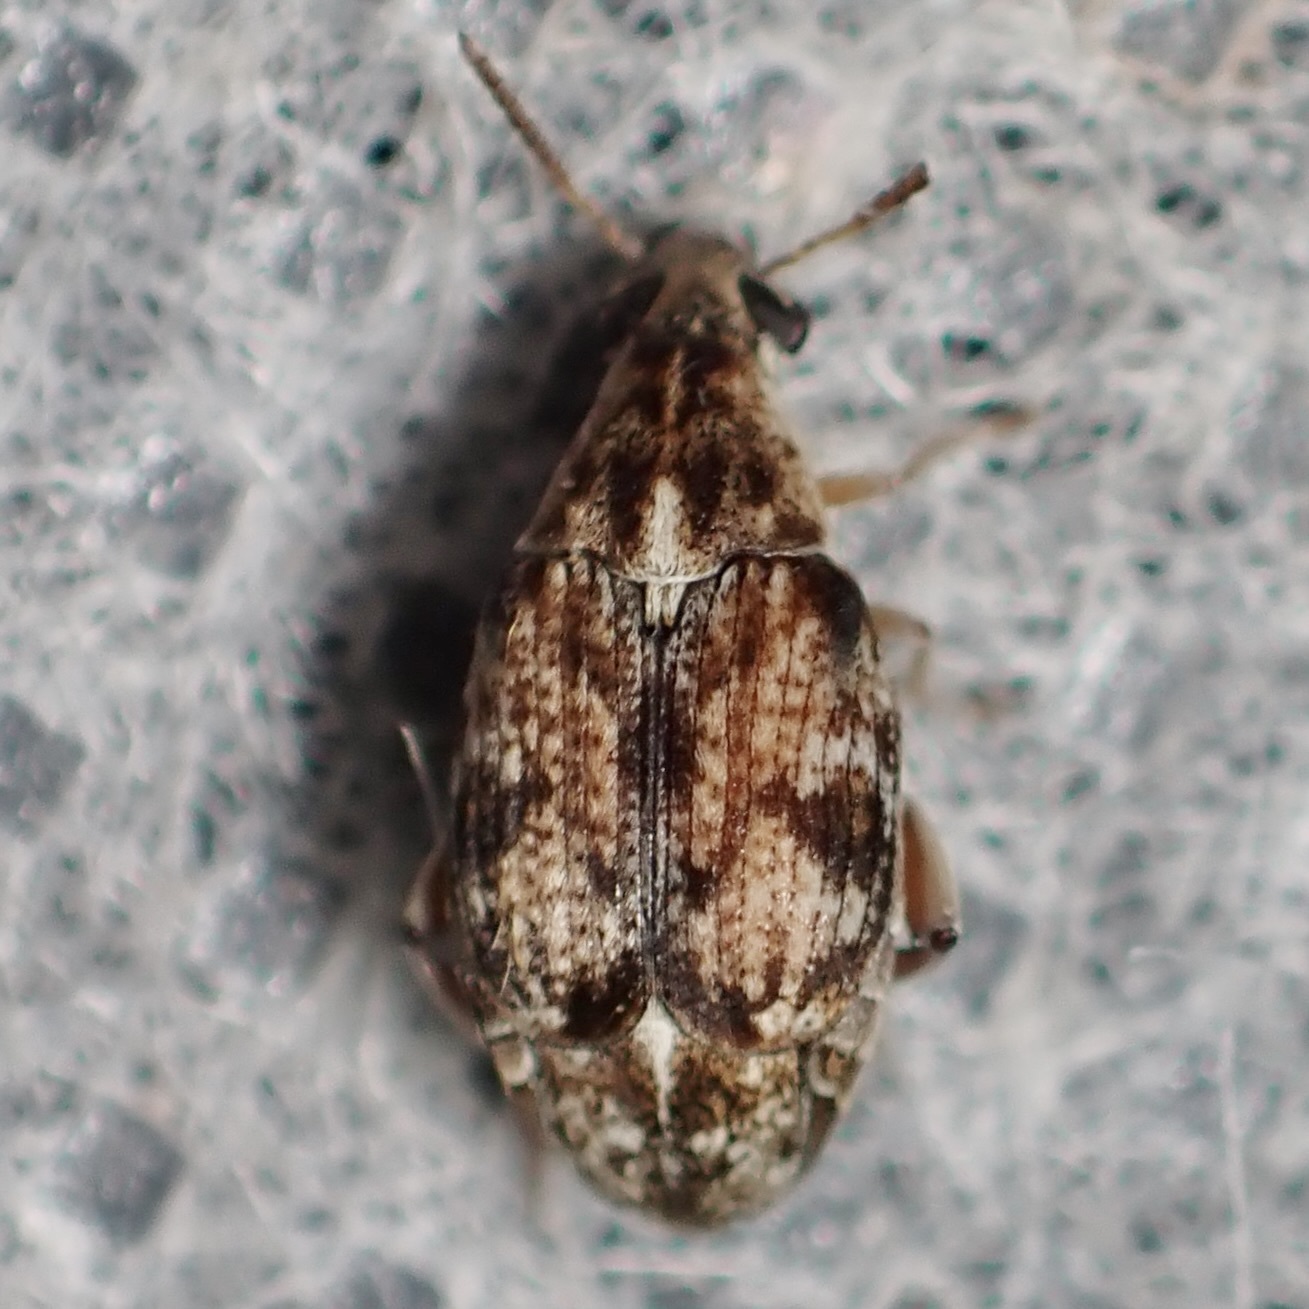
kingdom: Animalia
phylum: Arthropoda
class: Insecta
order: Coleoptera
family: Chrysomelidae
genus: Algarobius
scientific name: Algarobius prosopis
